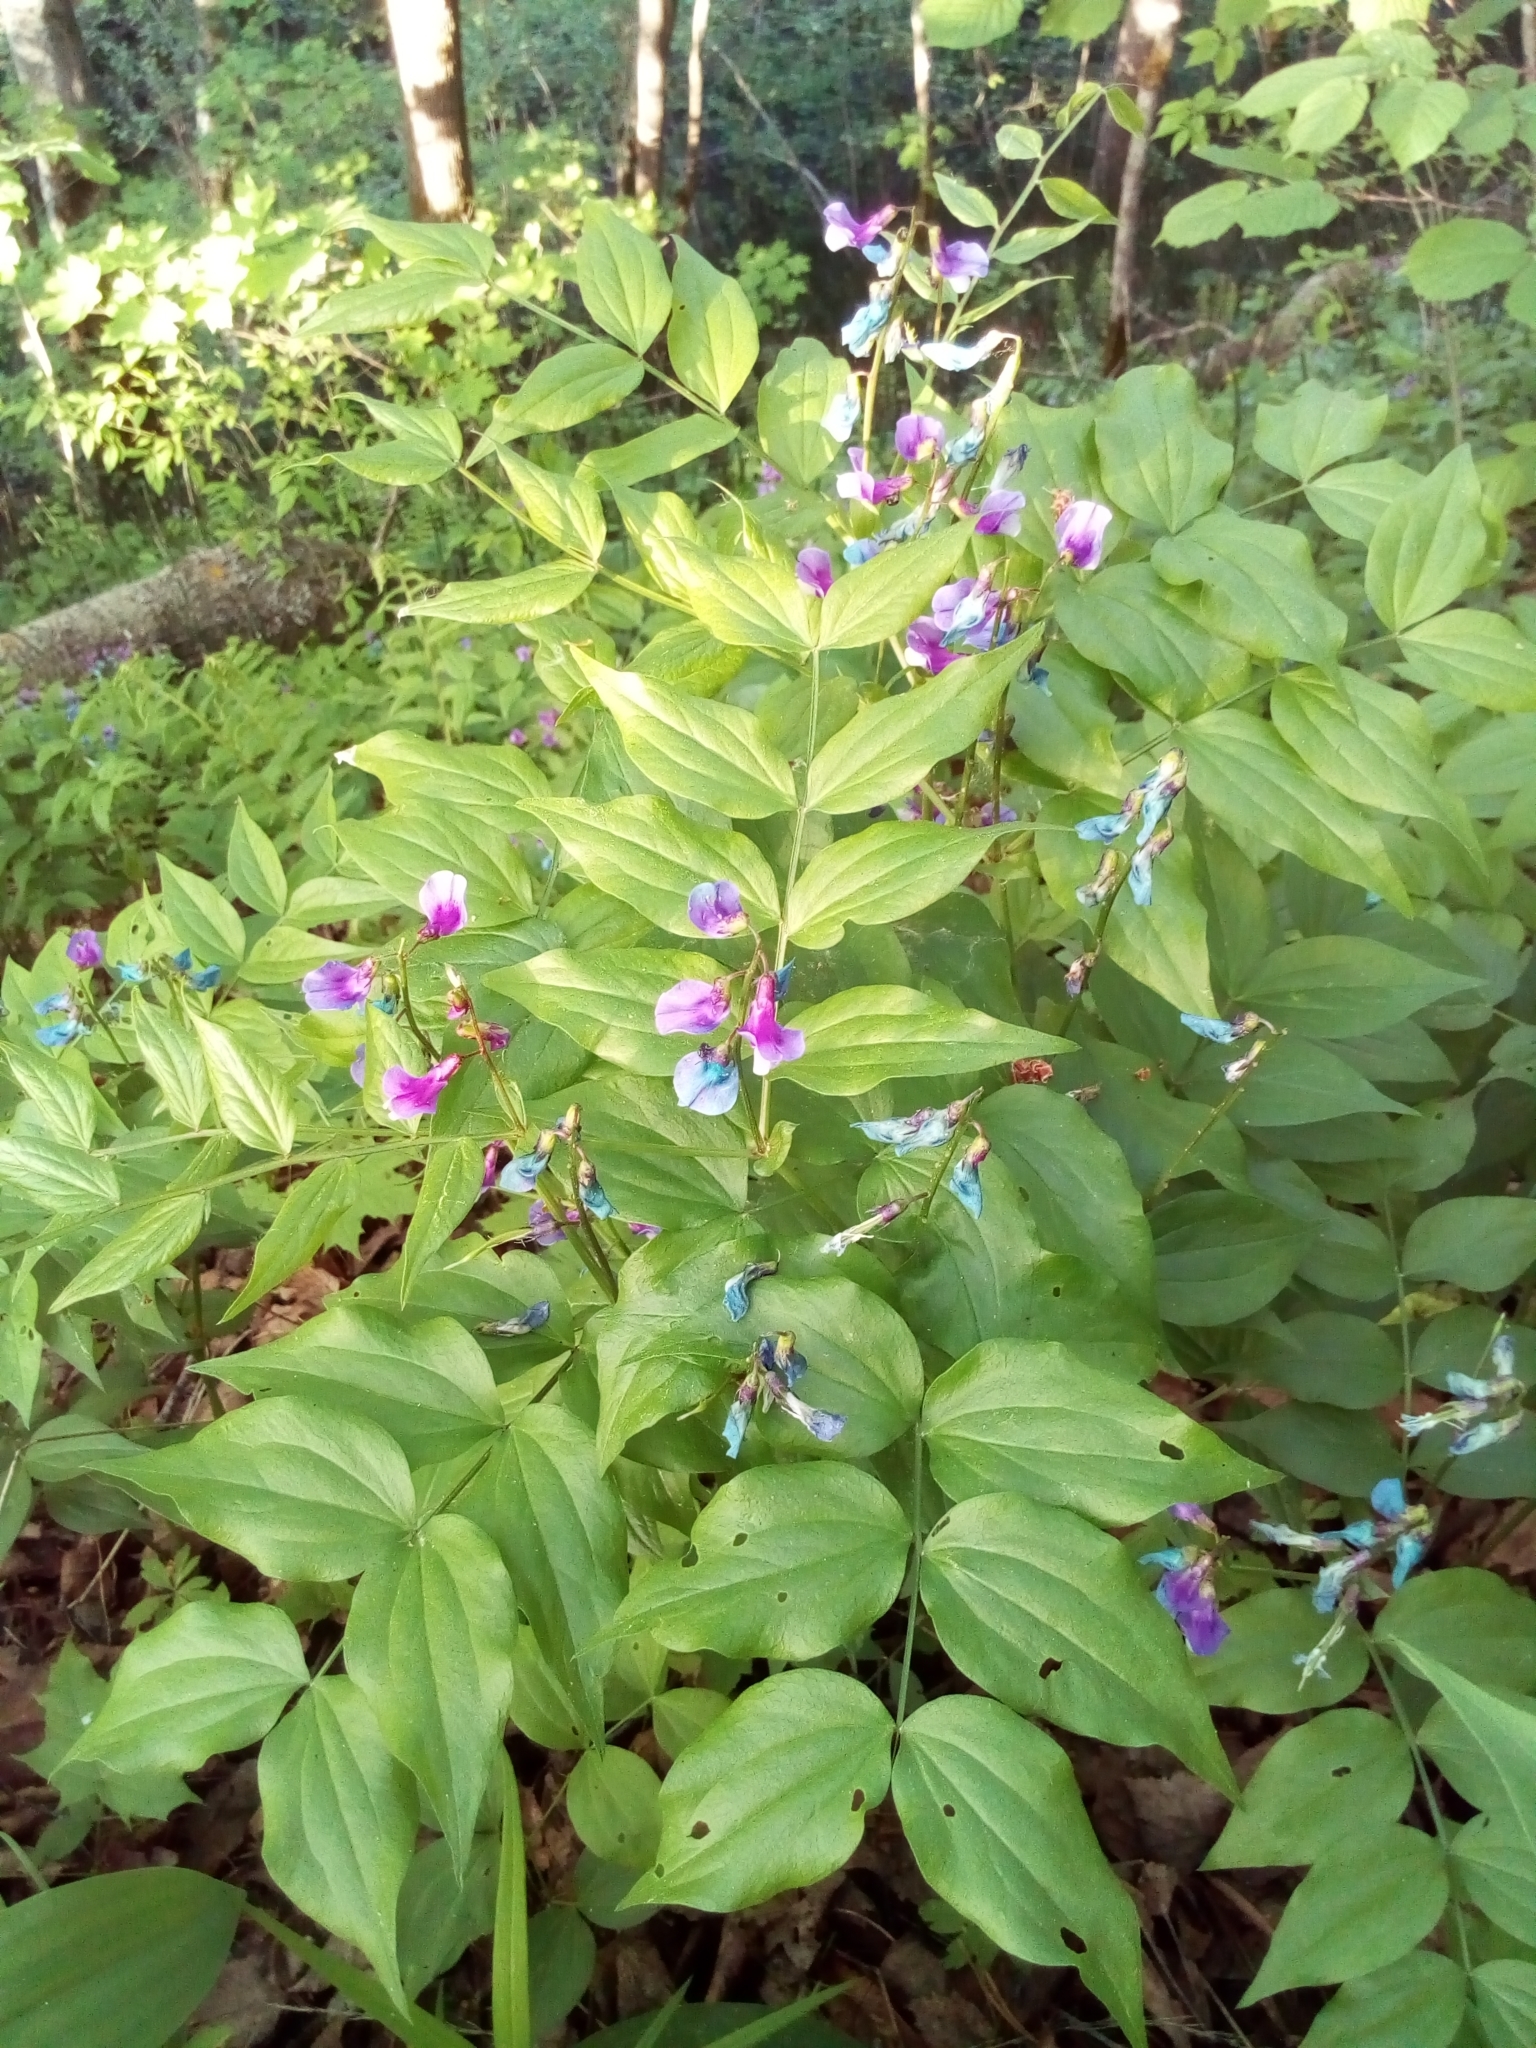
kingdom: Plantae
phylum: Tracheophyta
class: Magnoliopsida
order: Fabales
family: Fabaceae
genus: Lathyrus
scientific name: Lathyrus vernus
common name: Spring pea
